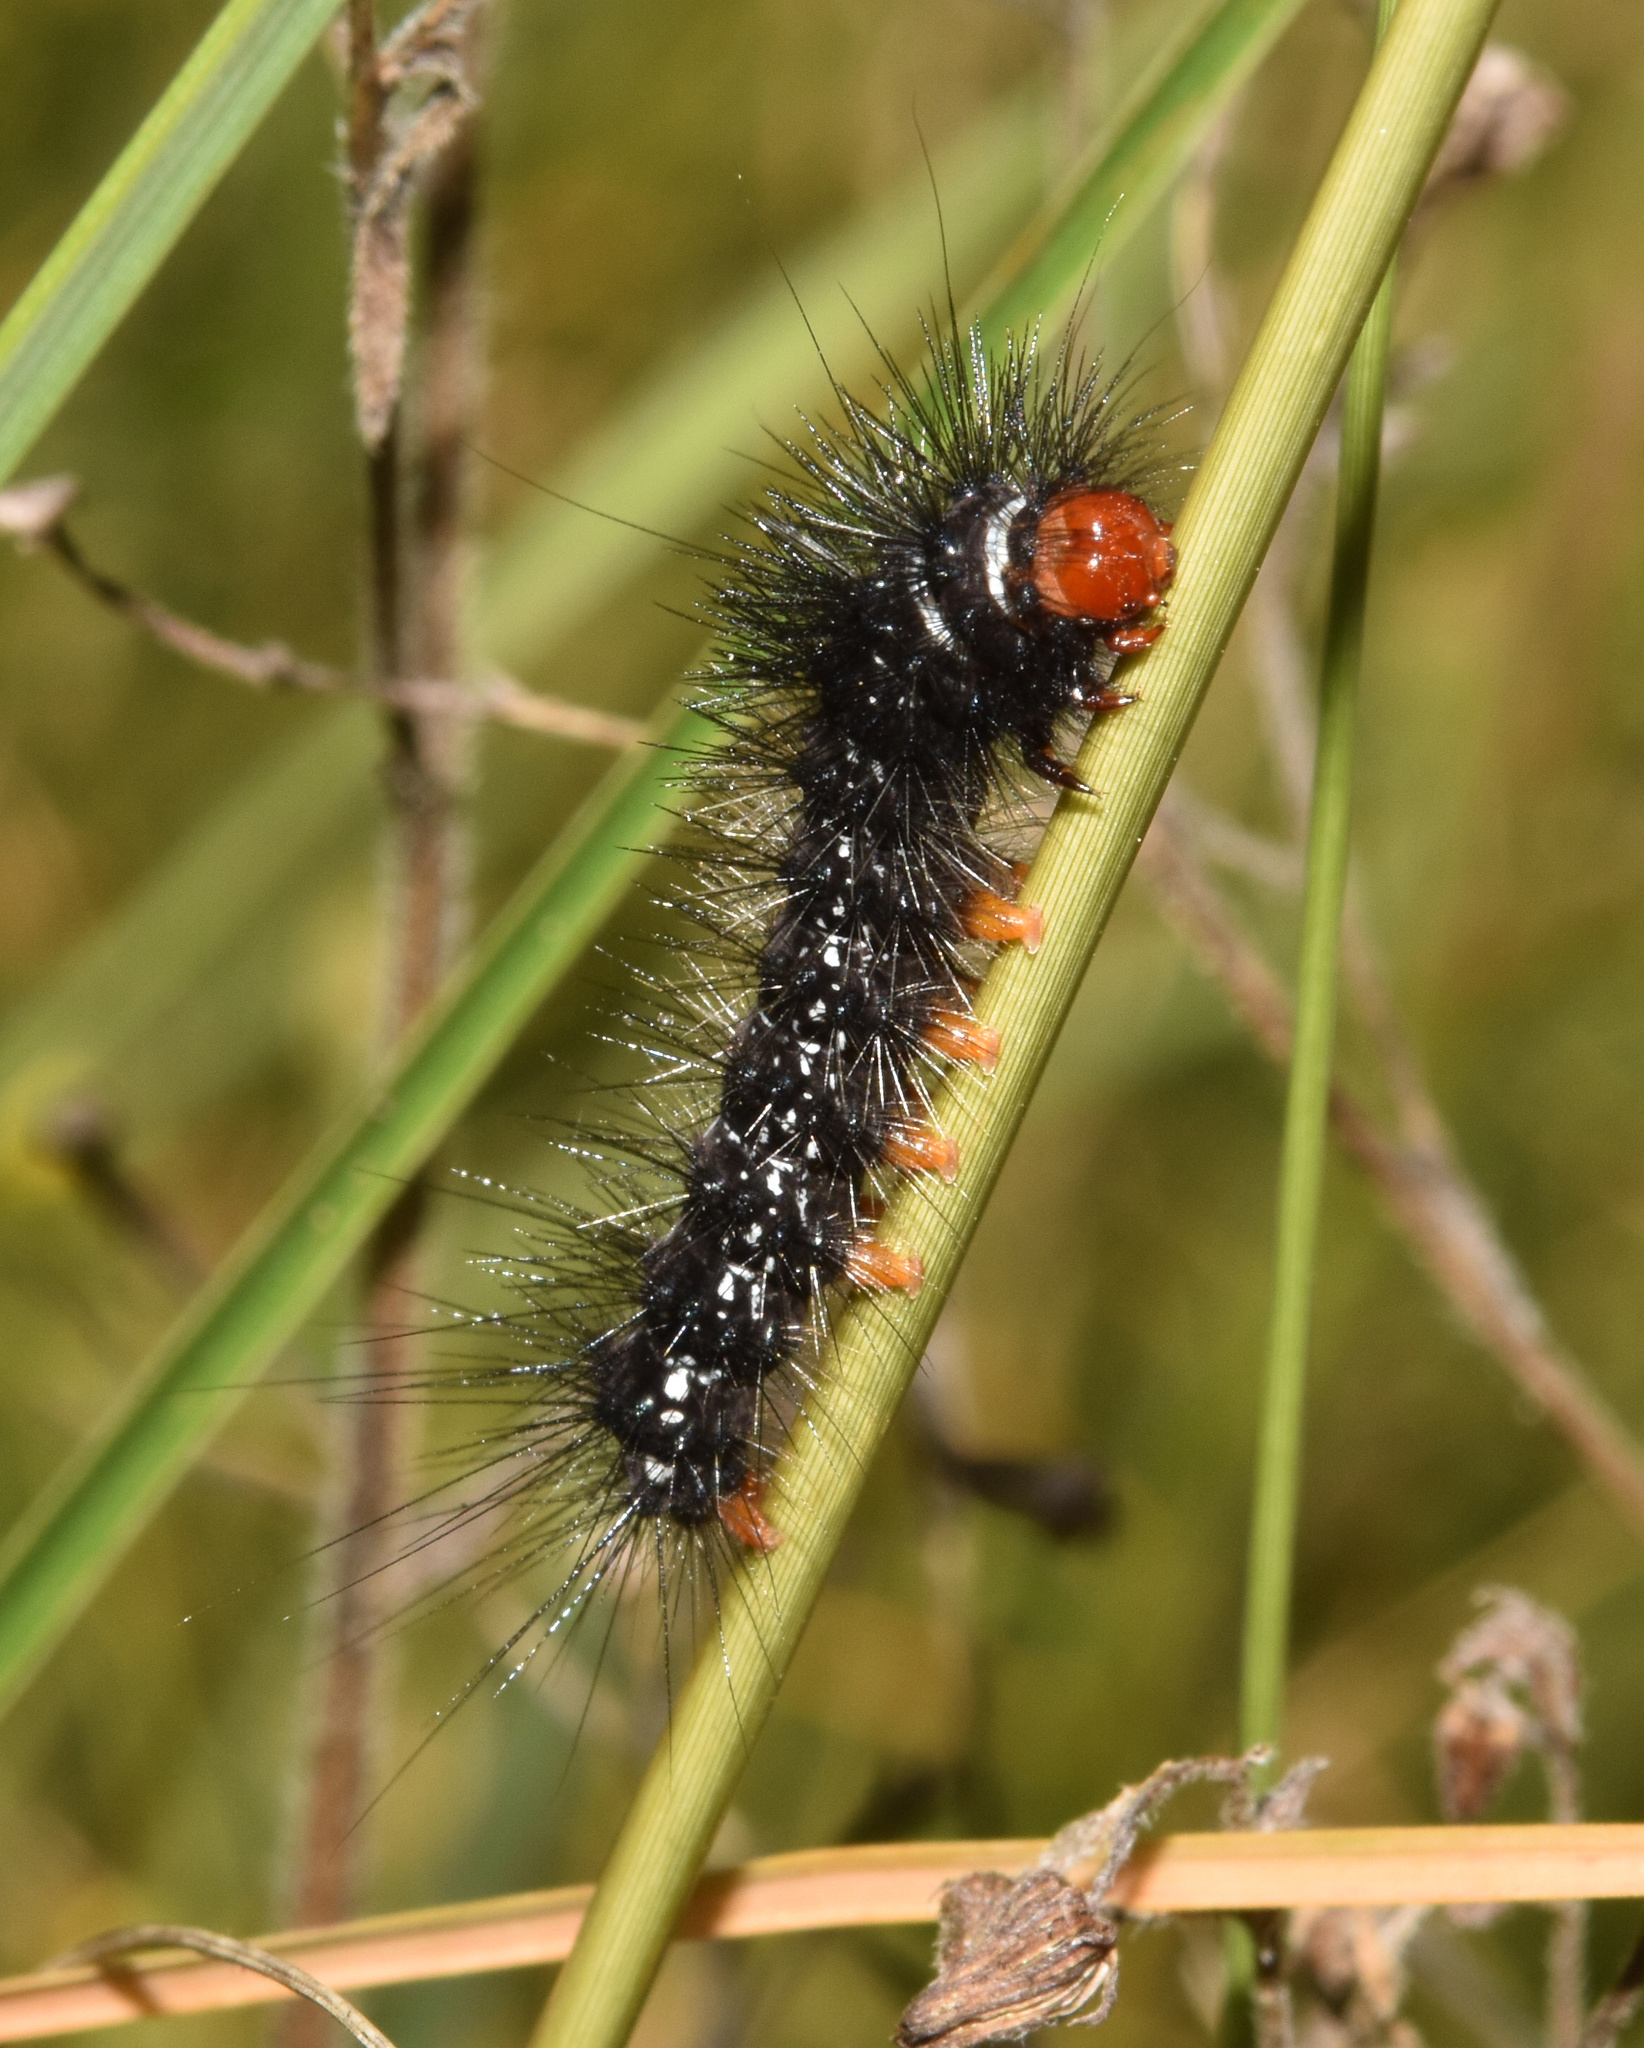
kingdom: Animalia
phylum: Arthropoda
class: Insecta
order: Lepidoptera
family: Erebidae
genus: Afromurzinia
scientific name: Afromurzinia lutescens
